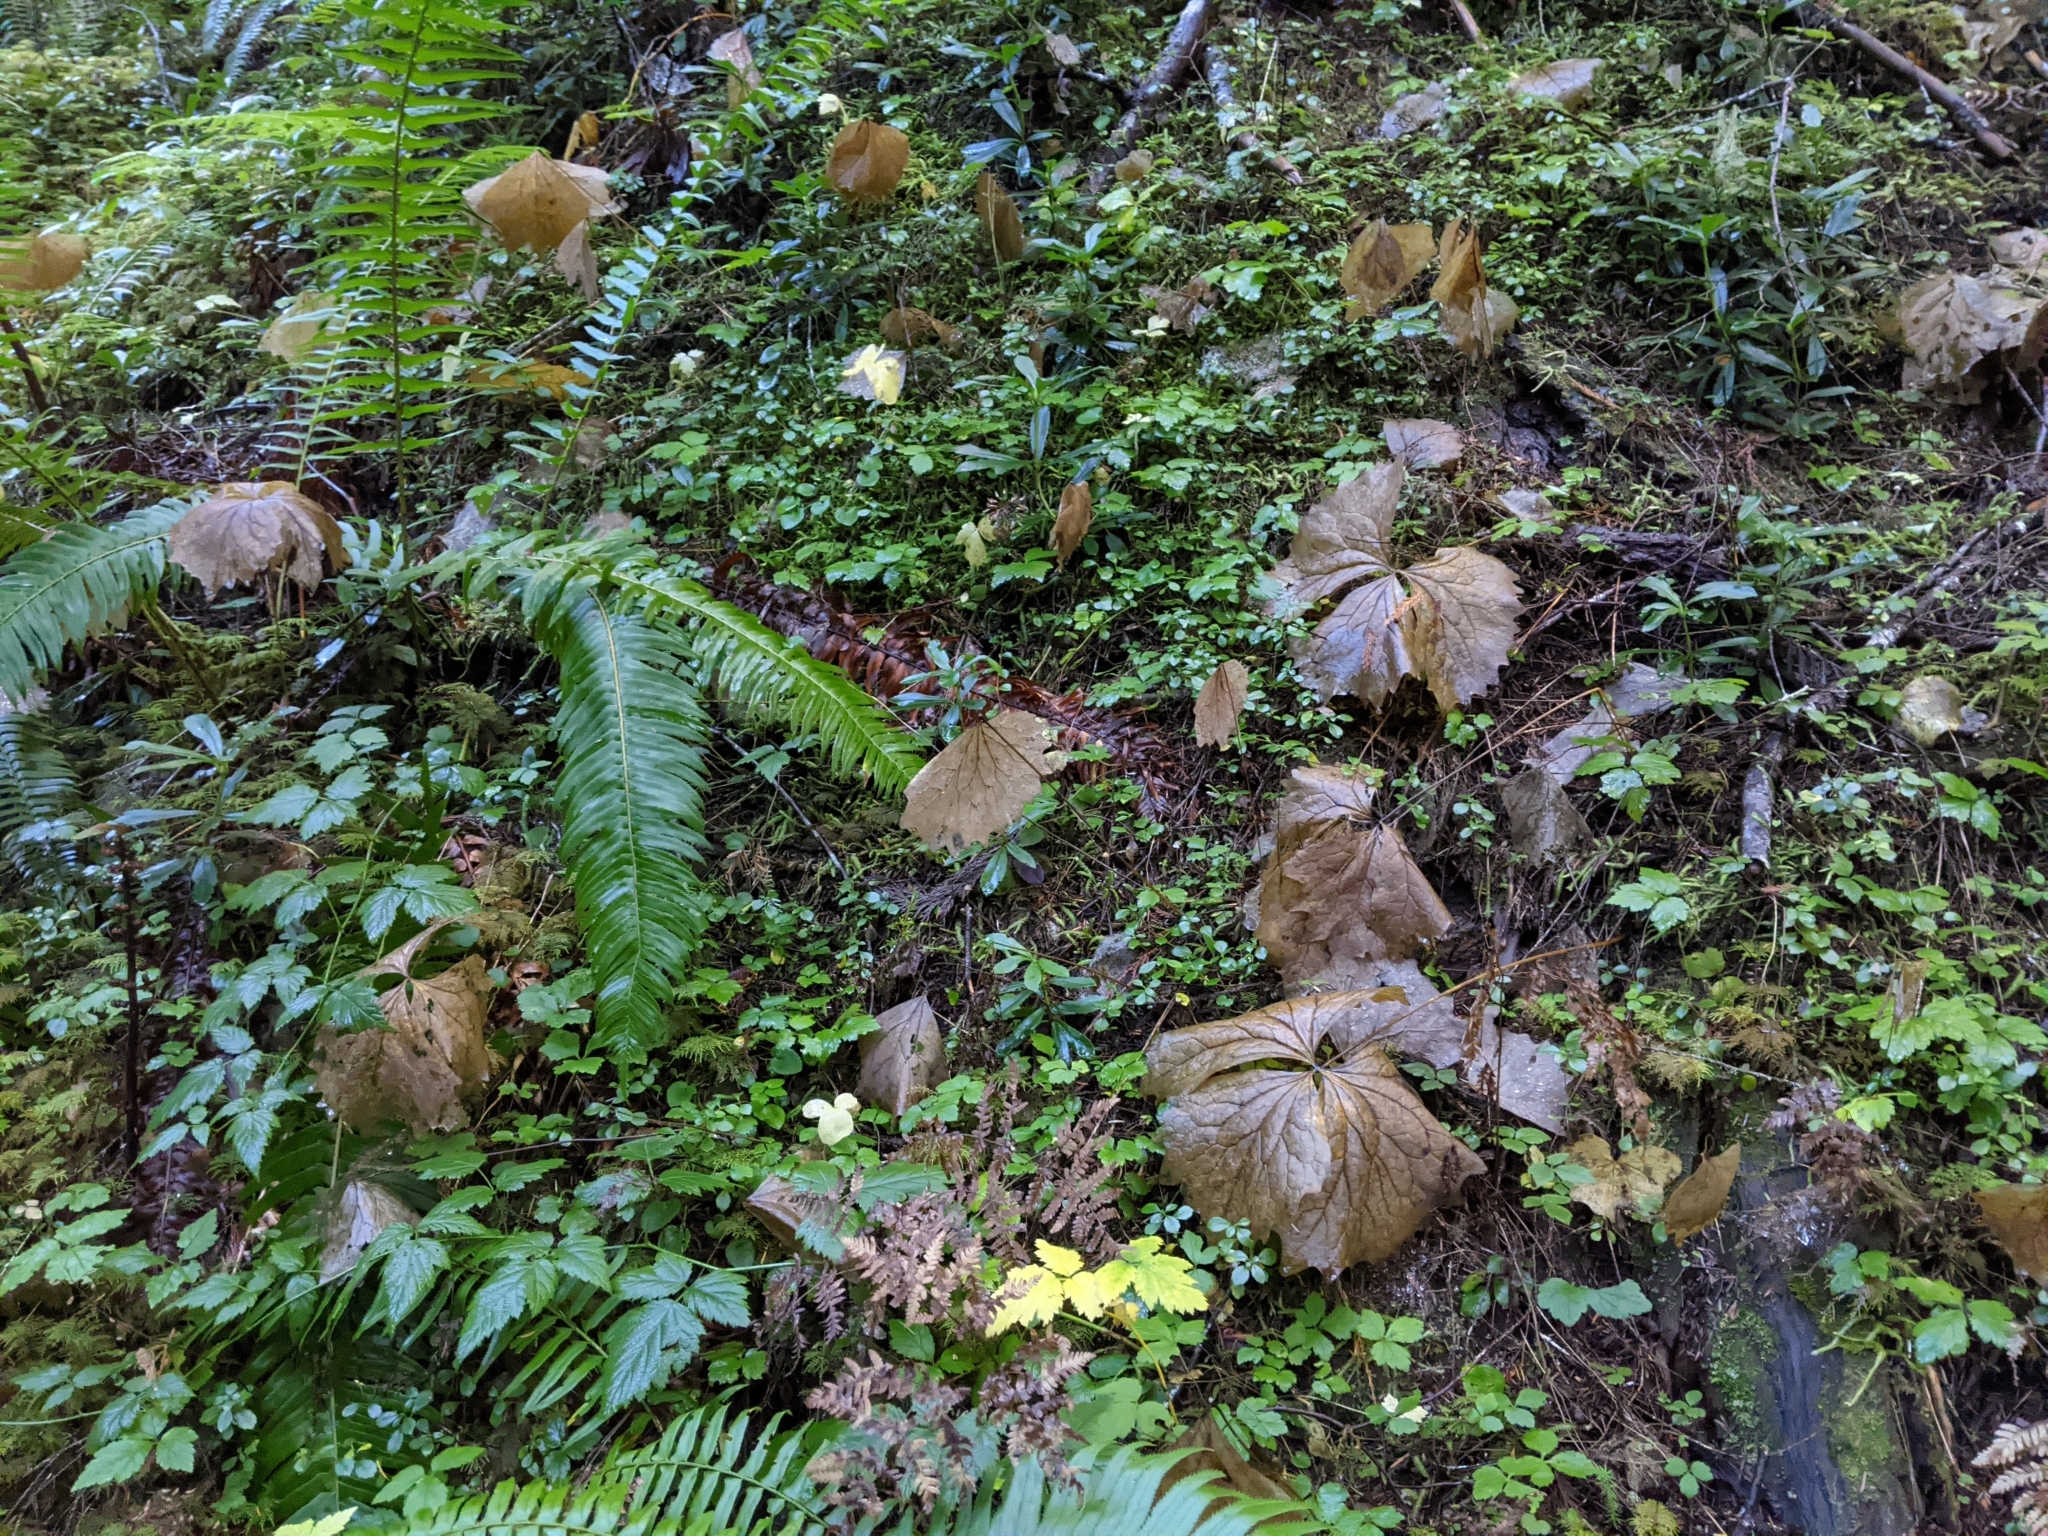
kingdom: Plantae
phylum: Tracheophyta
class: Magnoliopsida
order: Ranunculales
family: Berberidaceae
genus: Achlys
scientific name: Achlys californica
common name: California deer-foot
